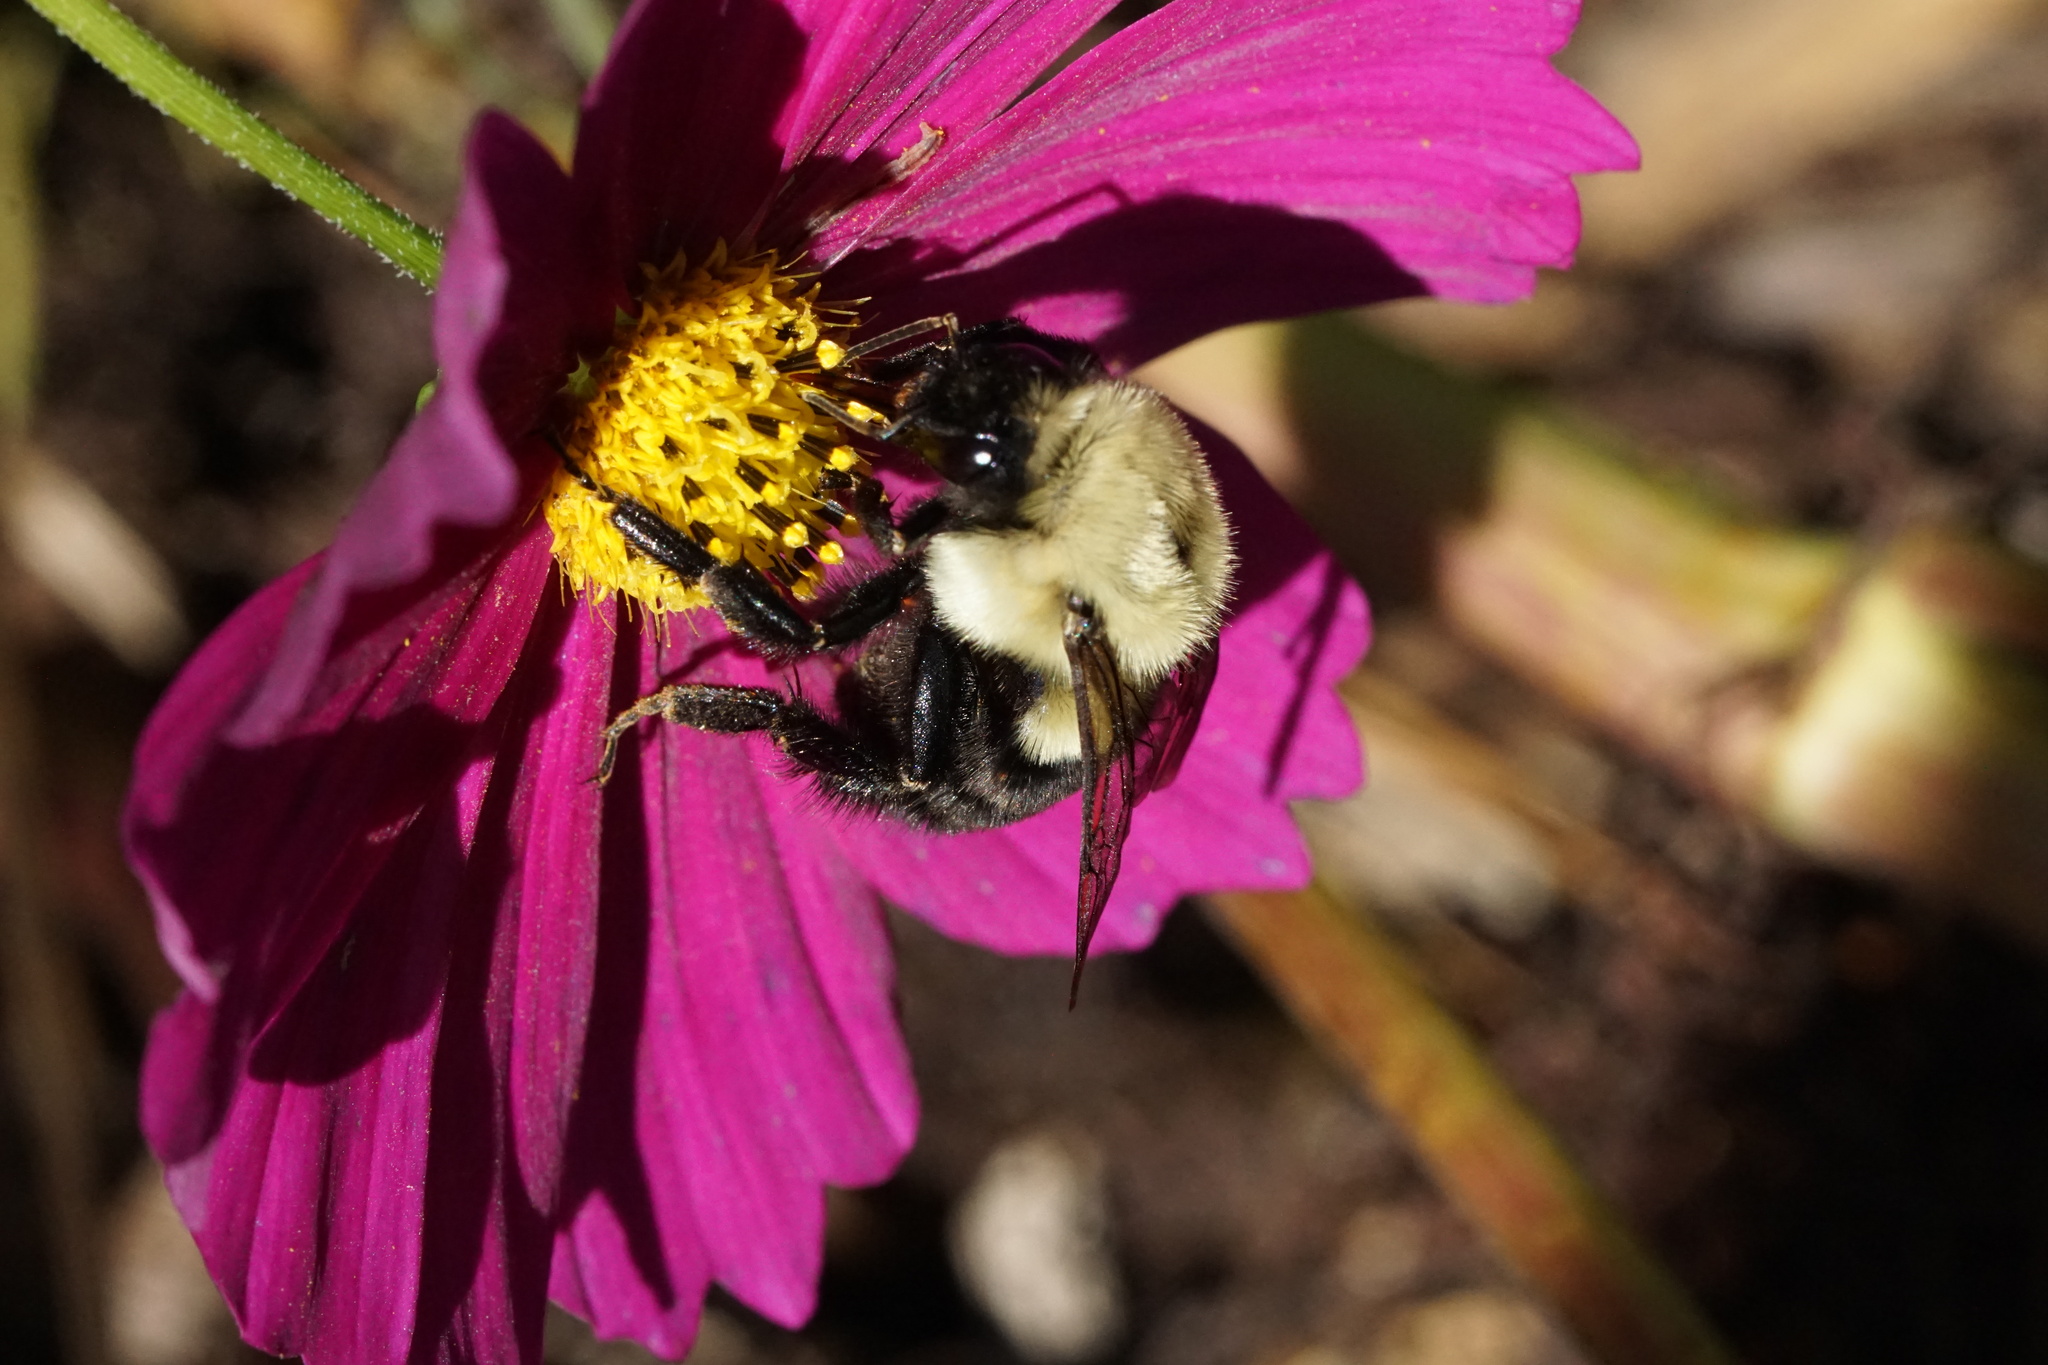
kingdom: Animalia
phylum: Arthropoda
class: Insecta
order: Hymenoptera
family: Apidae
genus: Bombus
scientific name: Bombus impatiens
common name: Common eastern bumble bee
